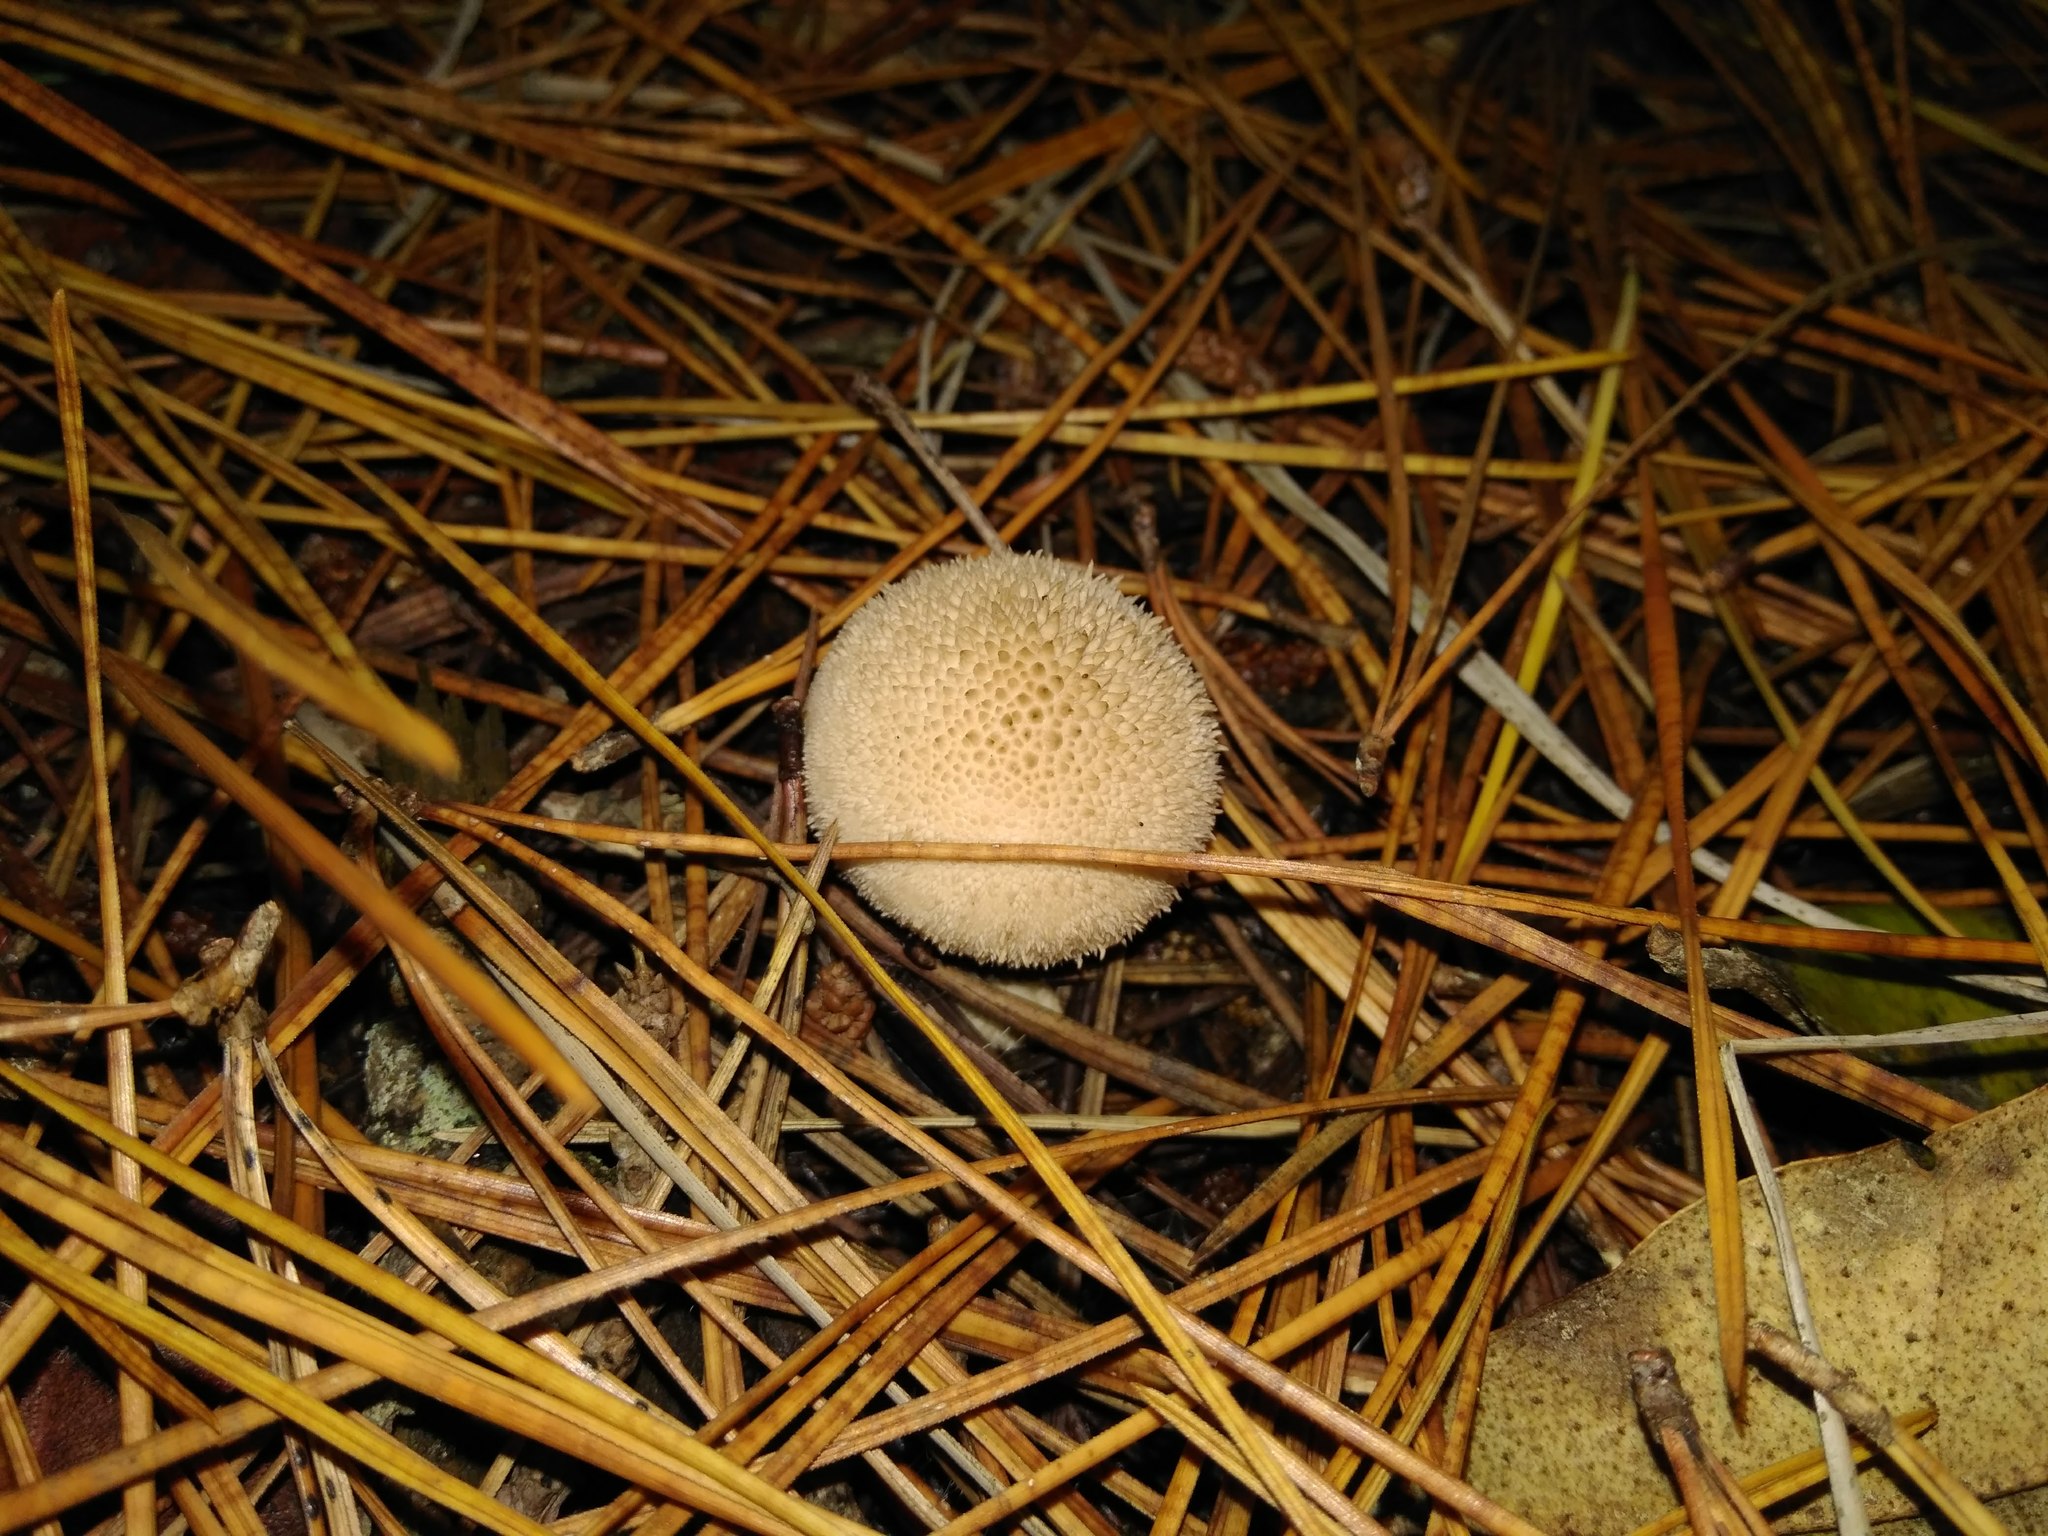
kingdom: Fungi
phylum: Basidiomycota
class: Agaricomycetes
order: Agaricales
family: Lycoperdaceae
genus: Lycoperdon
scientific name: Lycoperdon perlatum
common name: Common puffball
